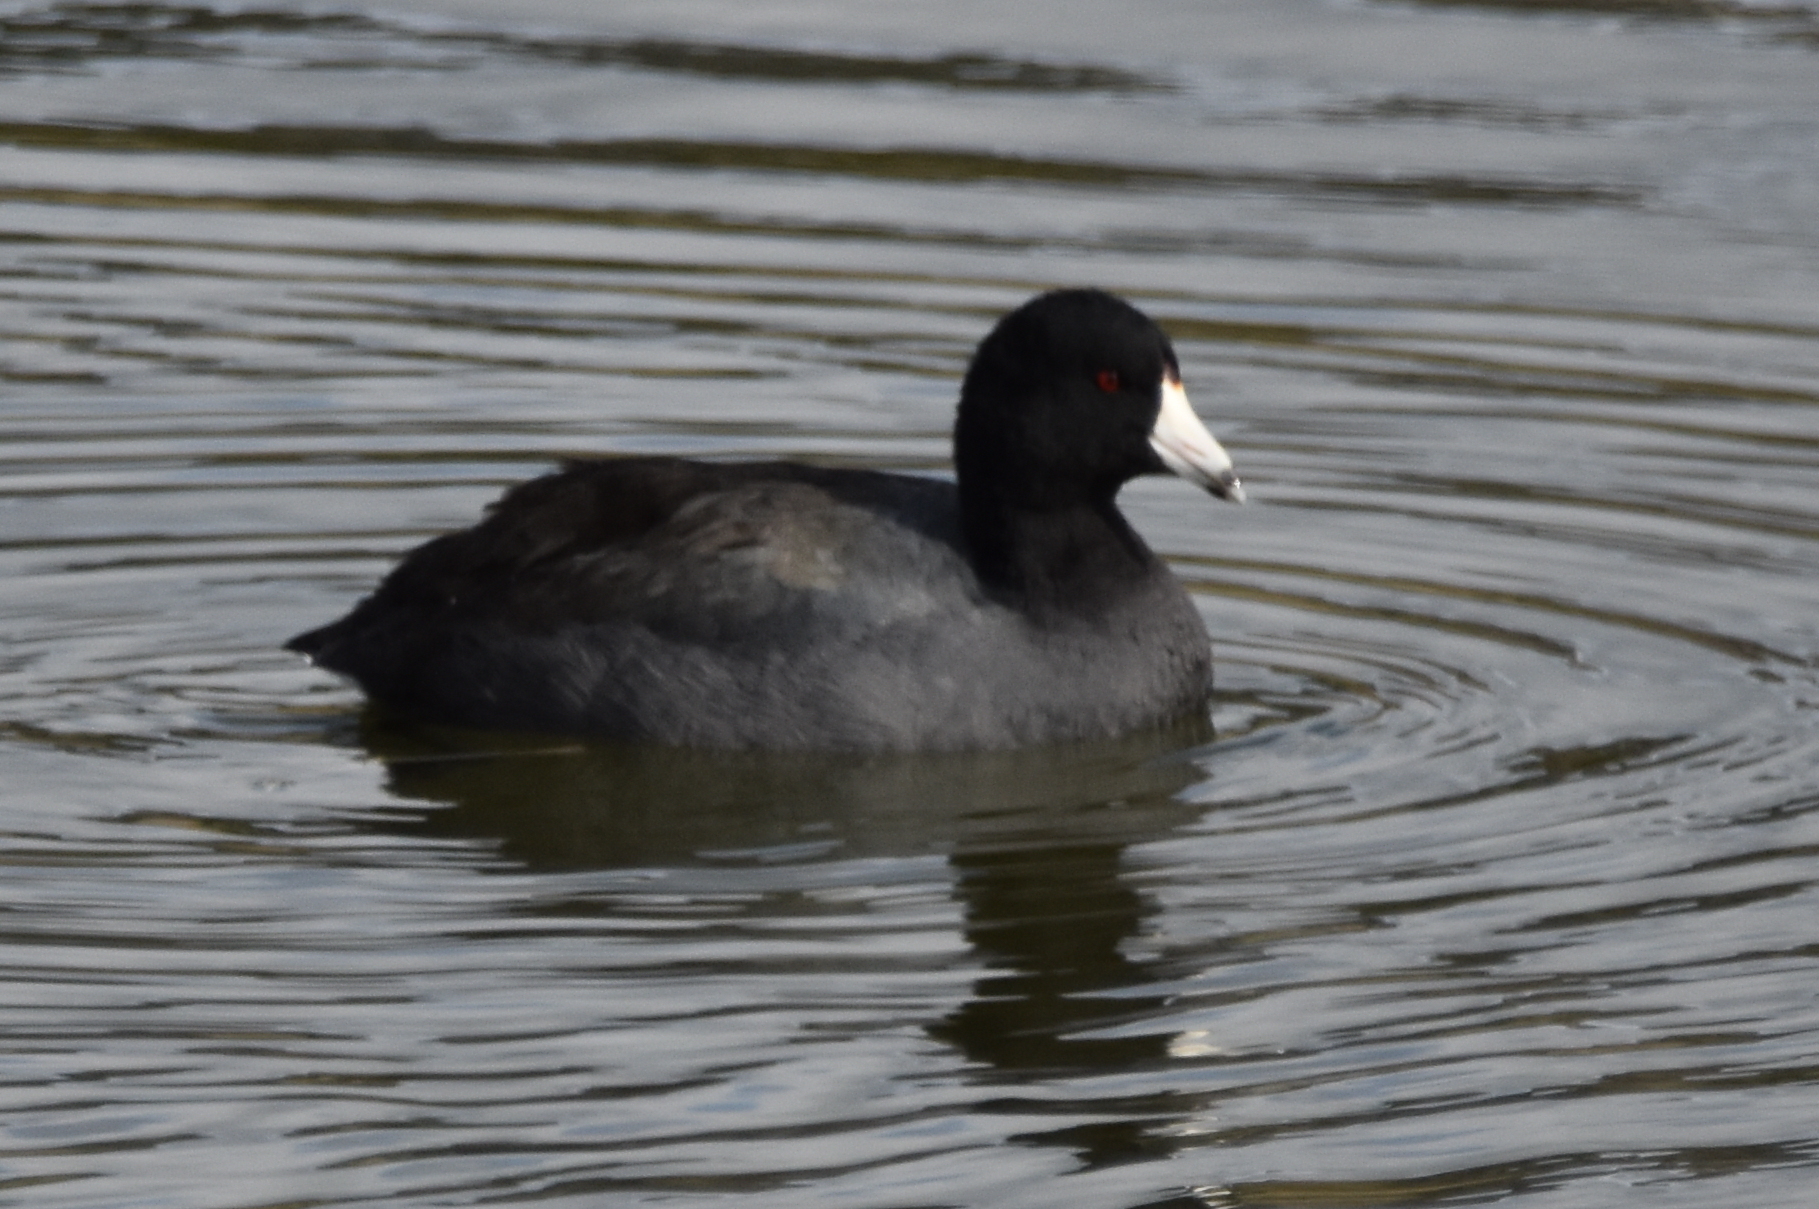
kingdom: Animalia
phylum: Chordata
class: Aves
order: Gruiformes
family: Rallidae
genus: Fulica
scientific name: Fulica americana
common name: American coot
